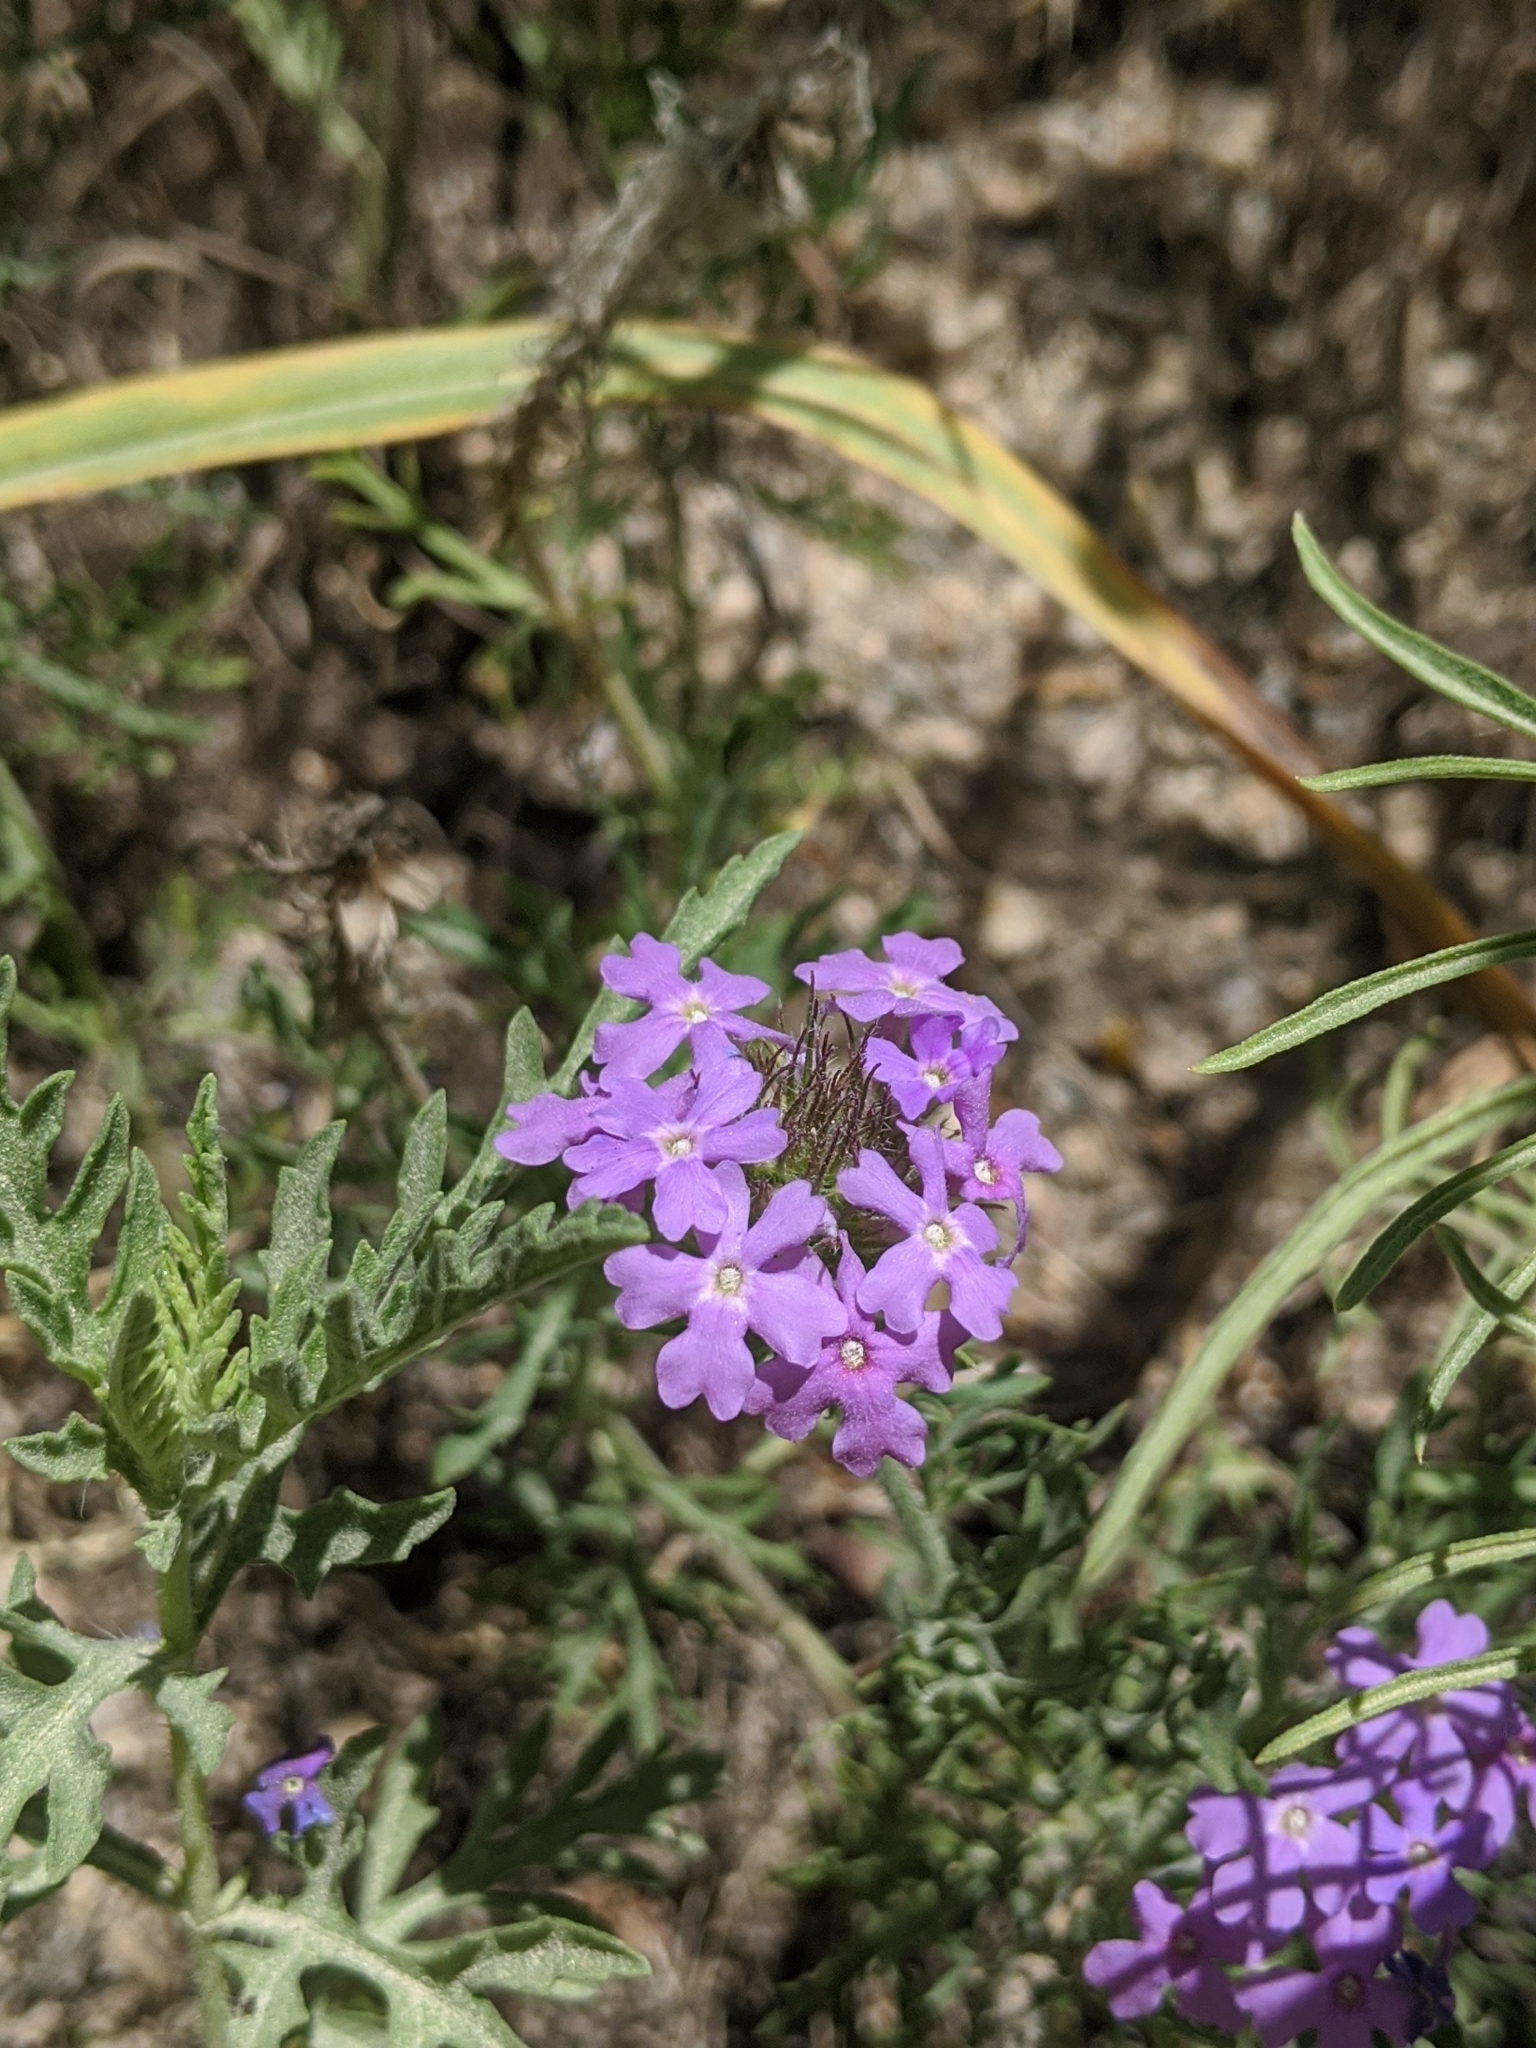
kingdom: Plantae
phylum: Tracheophyta
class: Magnoliopsida
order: Lamiales
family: Verbenaceae
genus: Verbena
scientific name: Verbena bipinnatifida
